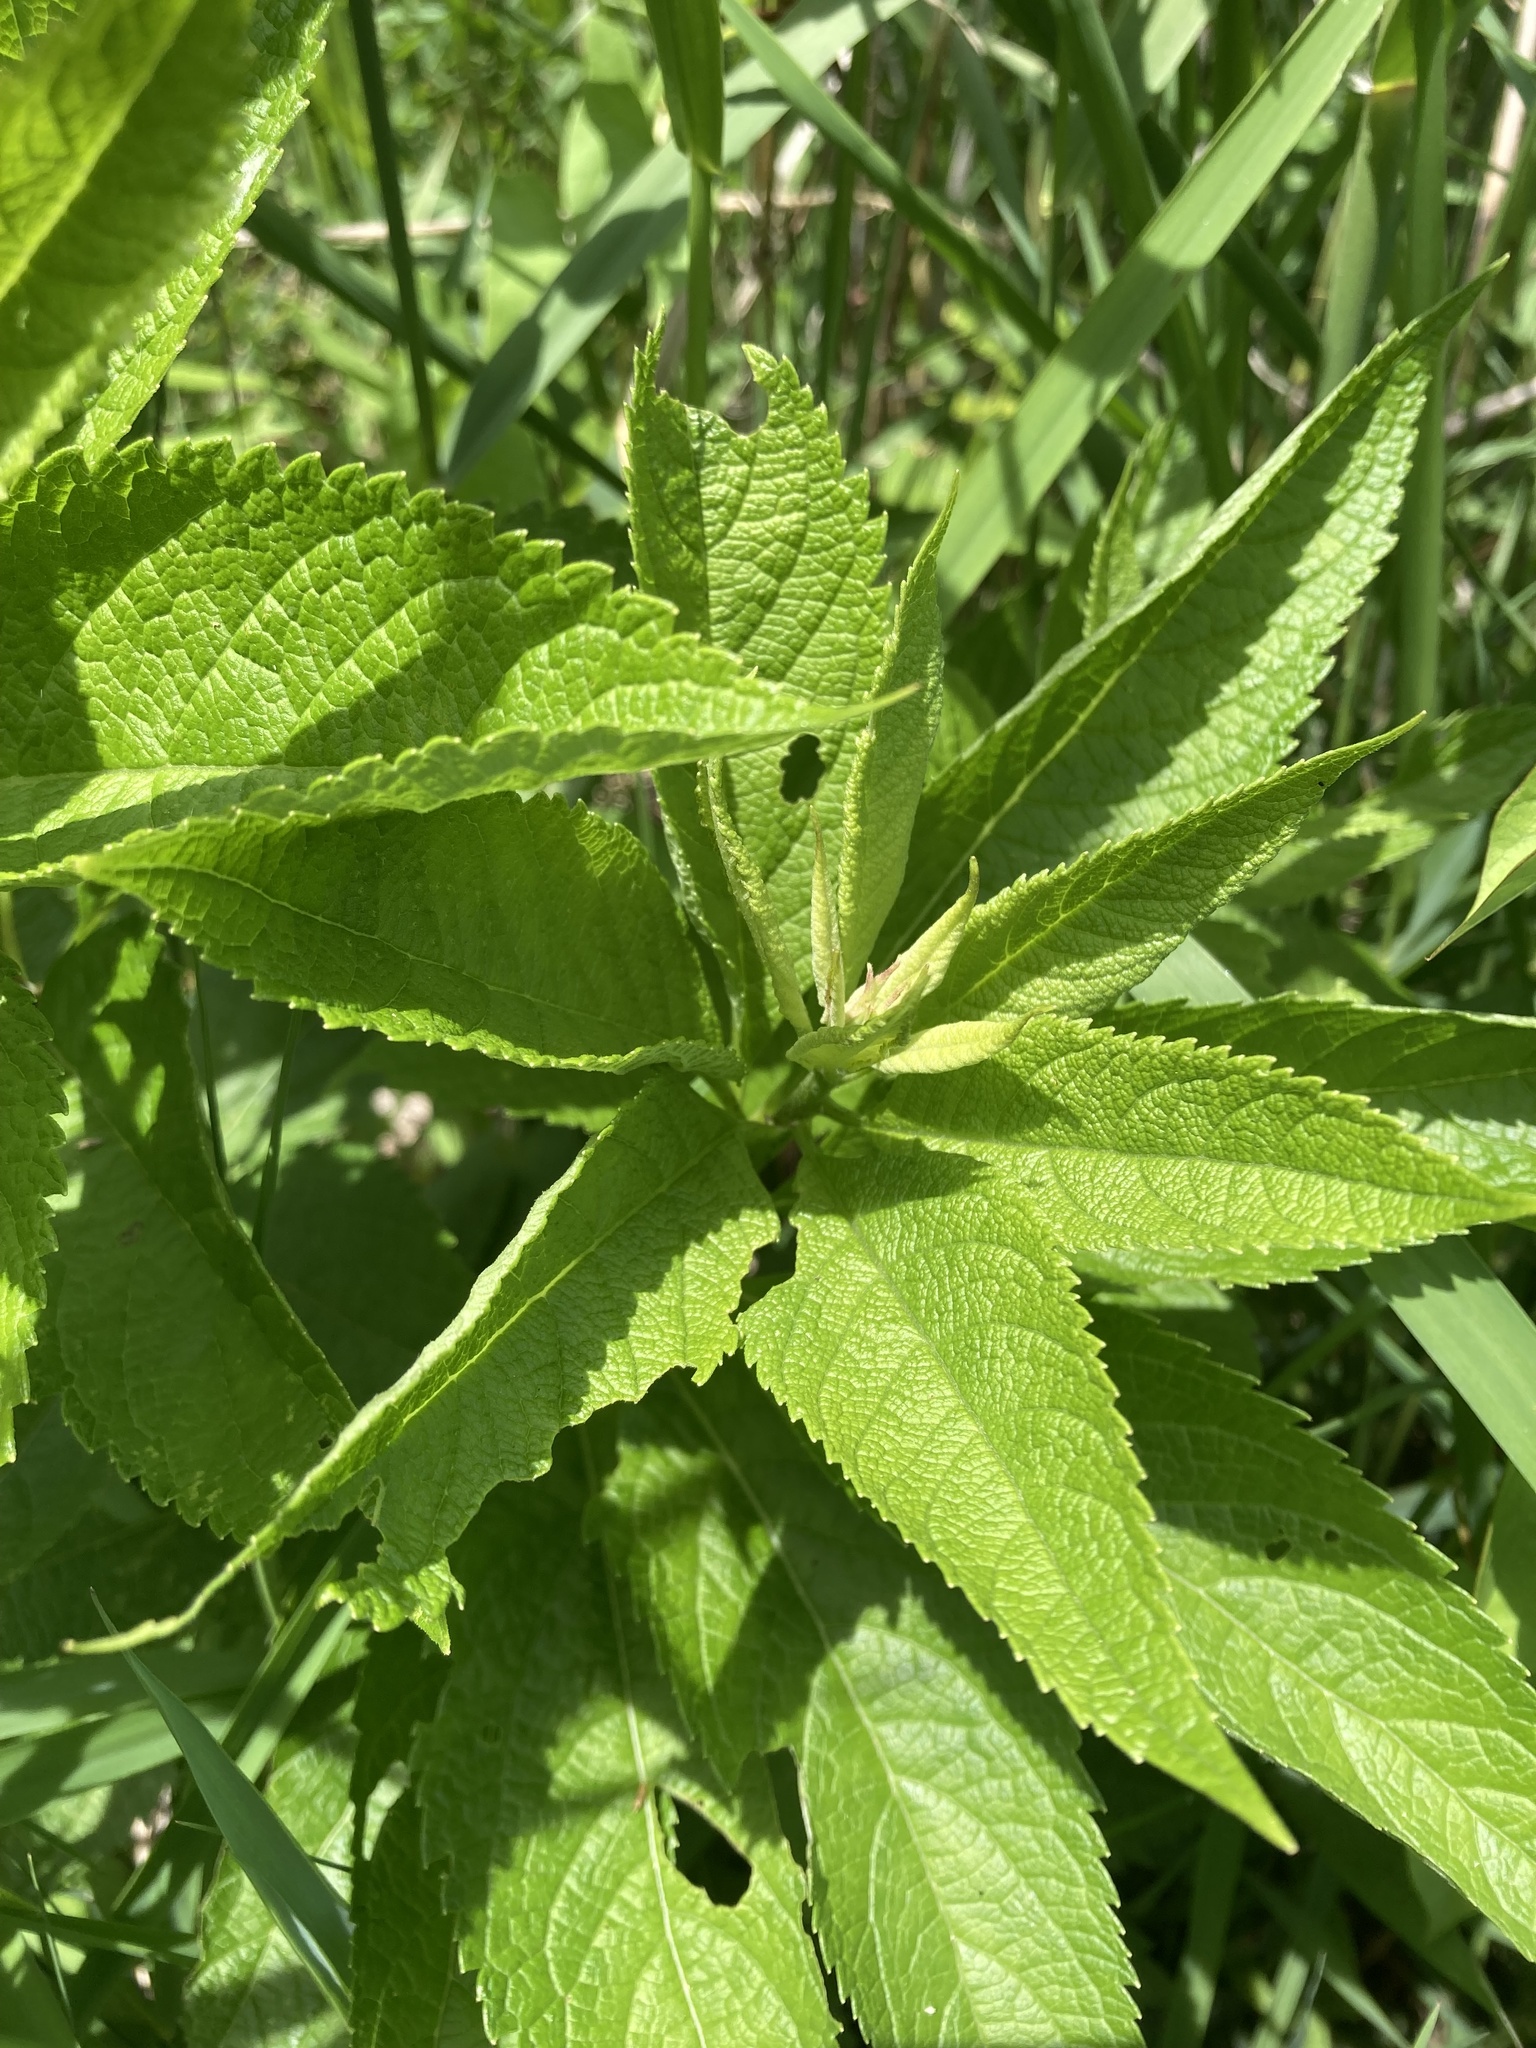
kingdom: Plantae
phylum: Tracheophyta
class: Magnoliopsida
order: Asterales
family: Asteraceae
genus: Eutrochium
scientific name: Eutrochium maculatum
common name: Spotted joe pye weed
